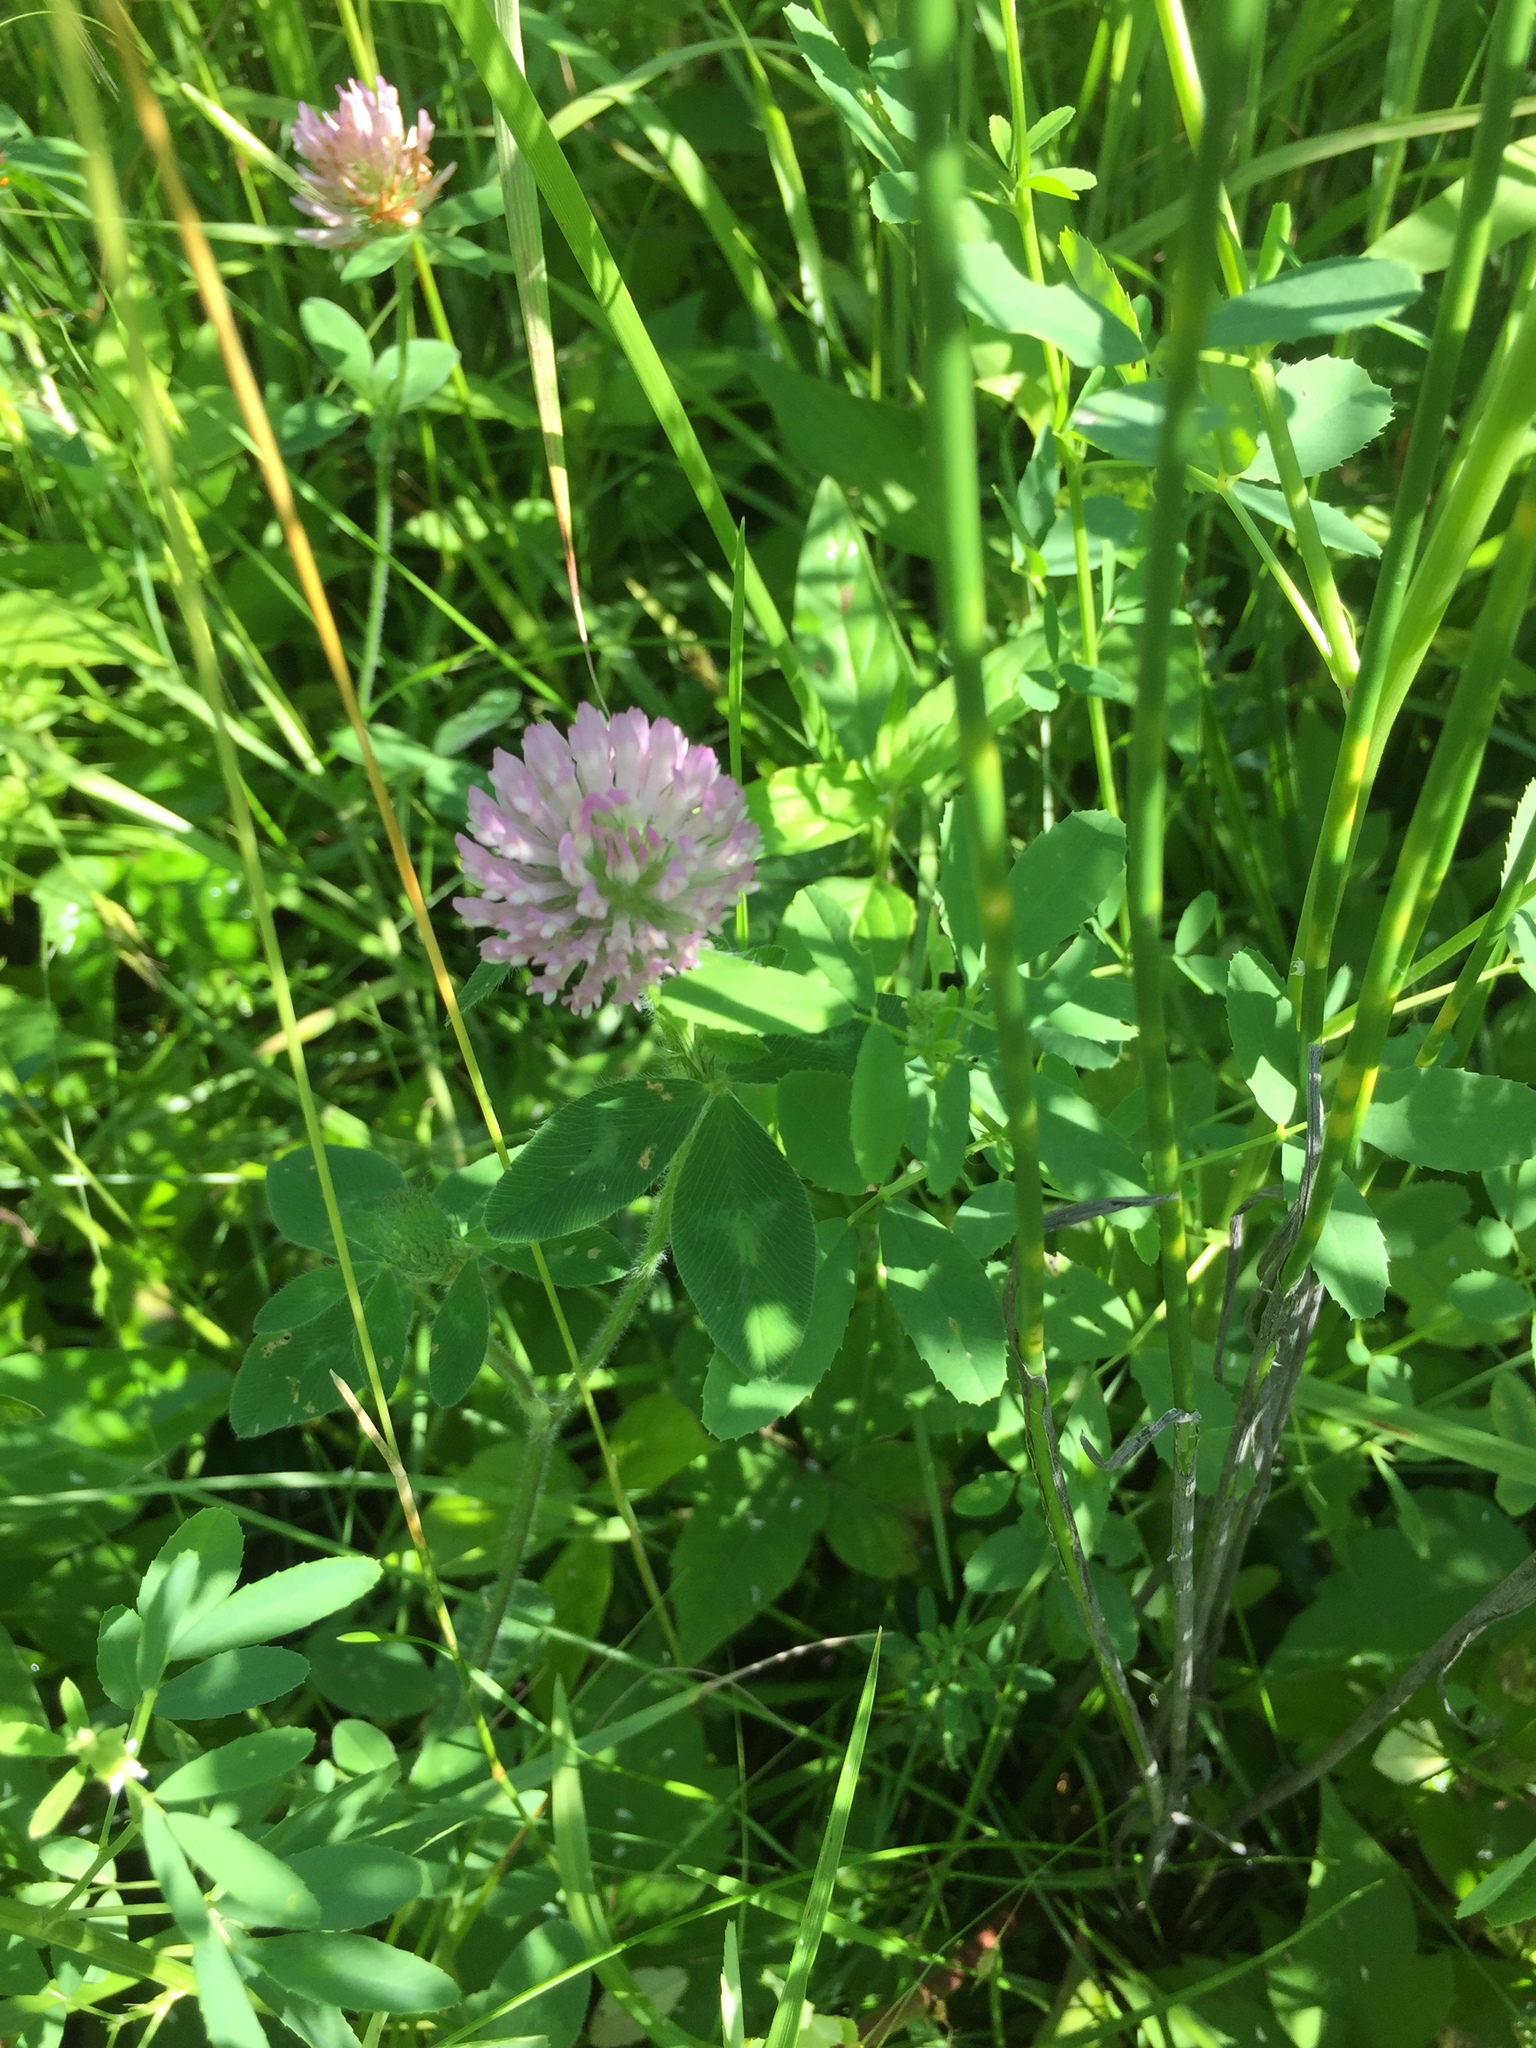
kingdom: Plantae
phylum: Tracheophyta
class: Magnoliopsida
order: Fabales
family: Fabaceae
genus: Trifolium
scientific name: Trifolium pratense
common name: Red clover
